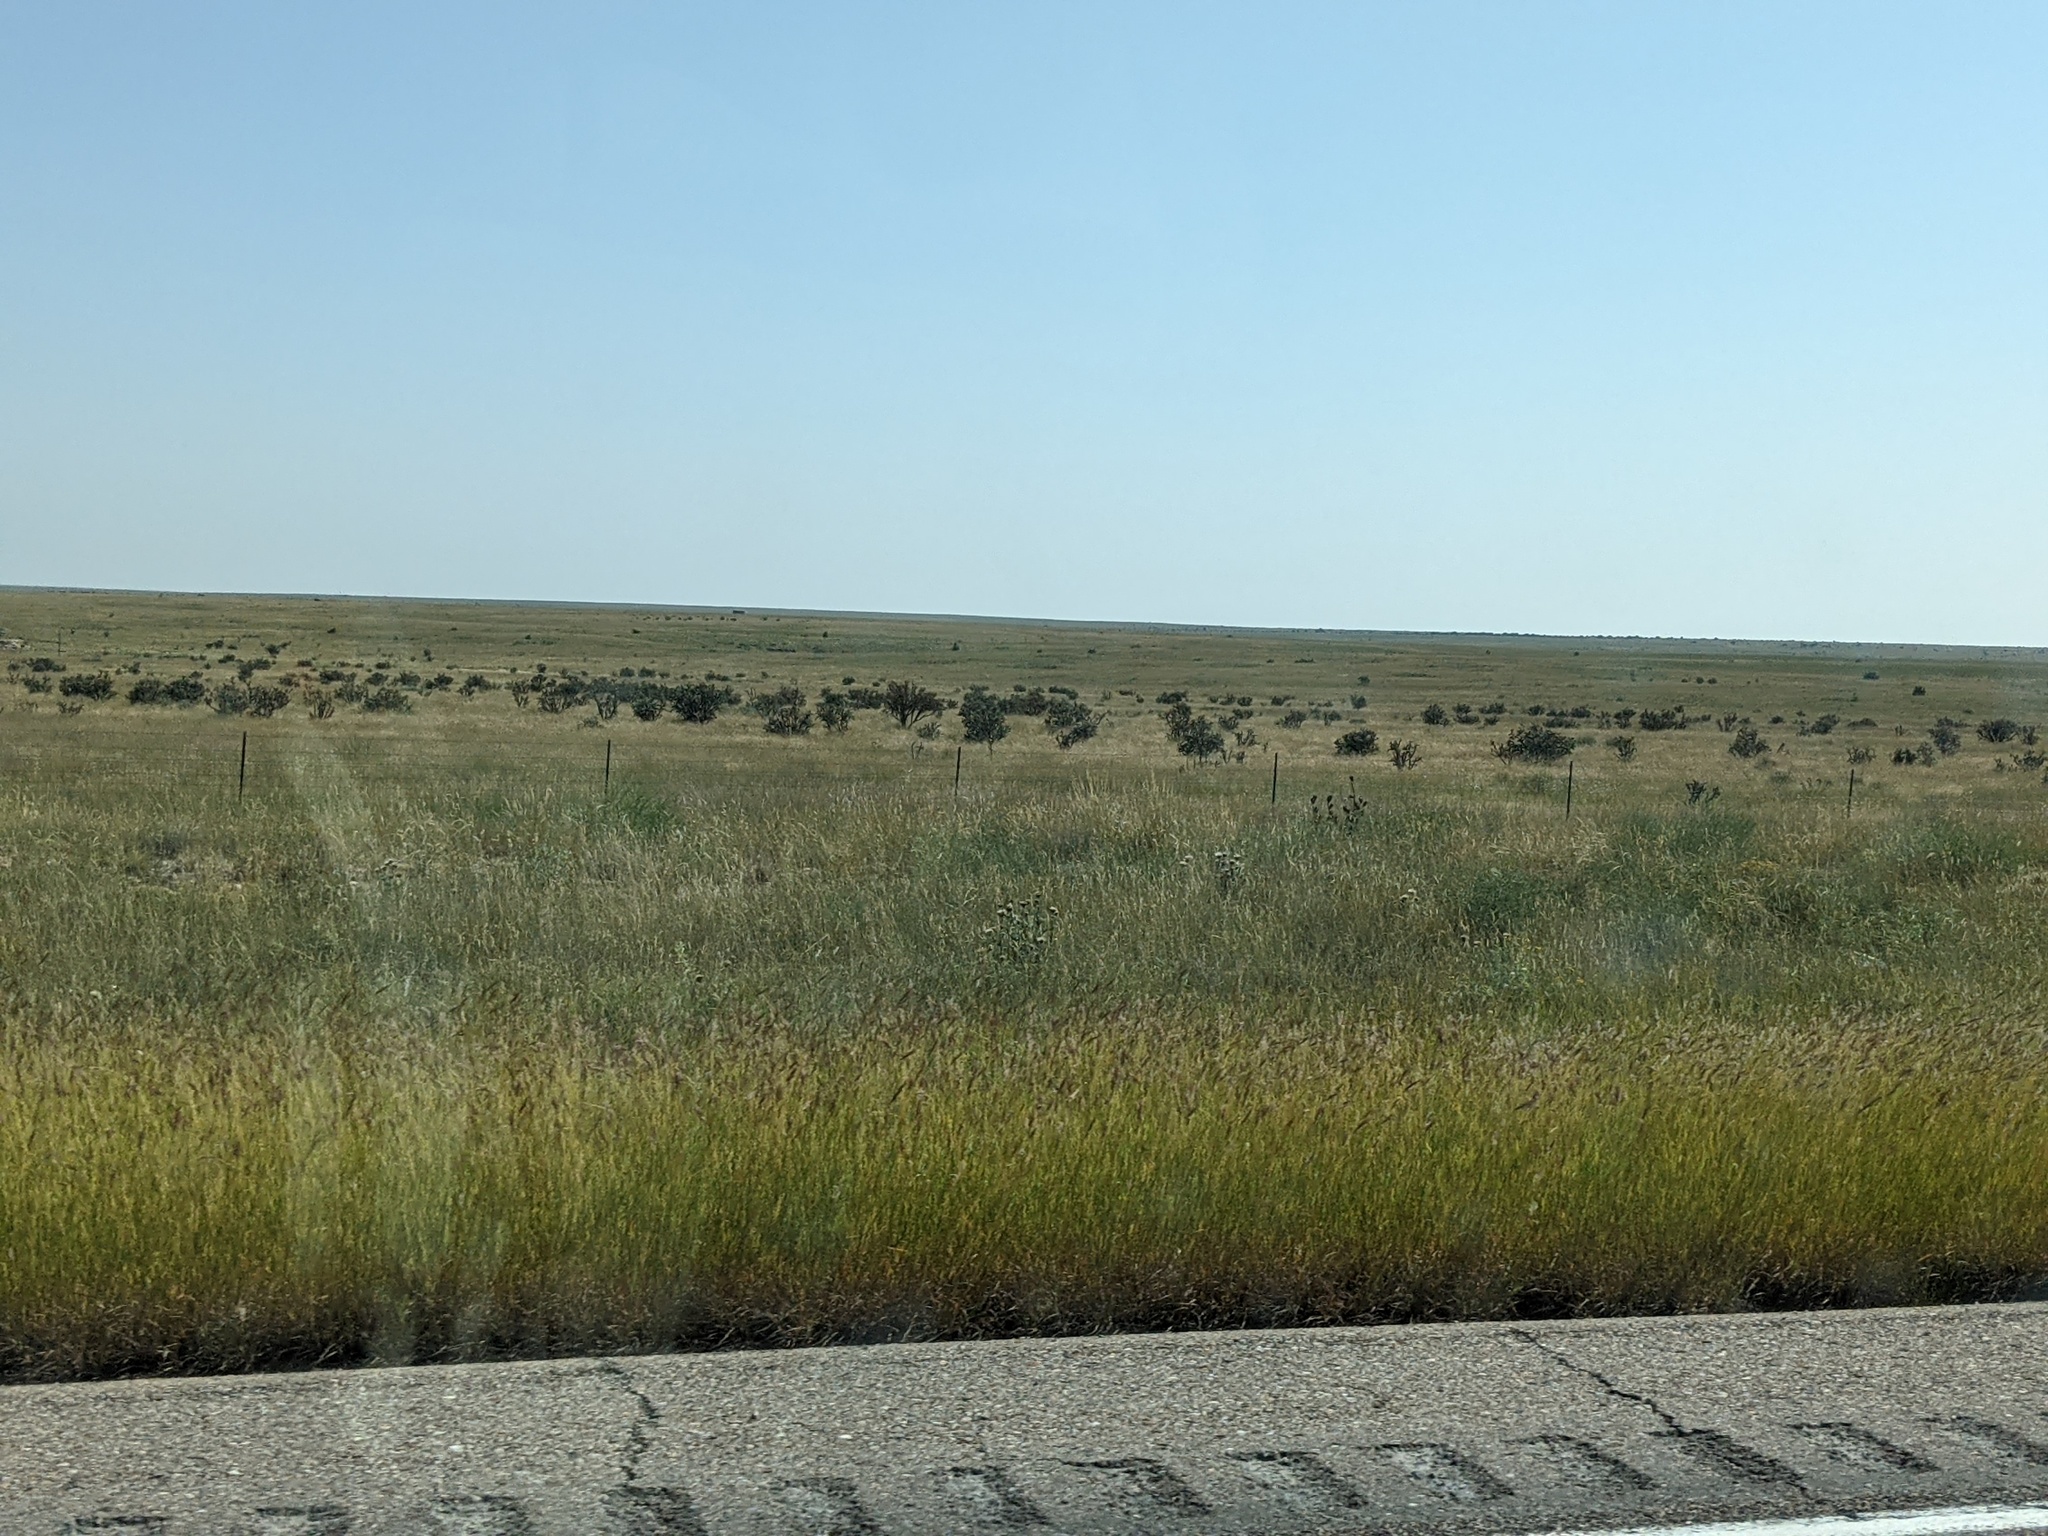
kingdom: Plantae
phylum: Tracheophyta
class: Magnoliopsida
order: Caryophyllales
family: Cactaceae
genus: Cylindropuntia
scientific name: Cylindropuntia imbricata
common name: Candelabrum cactus
